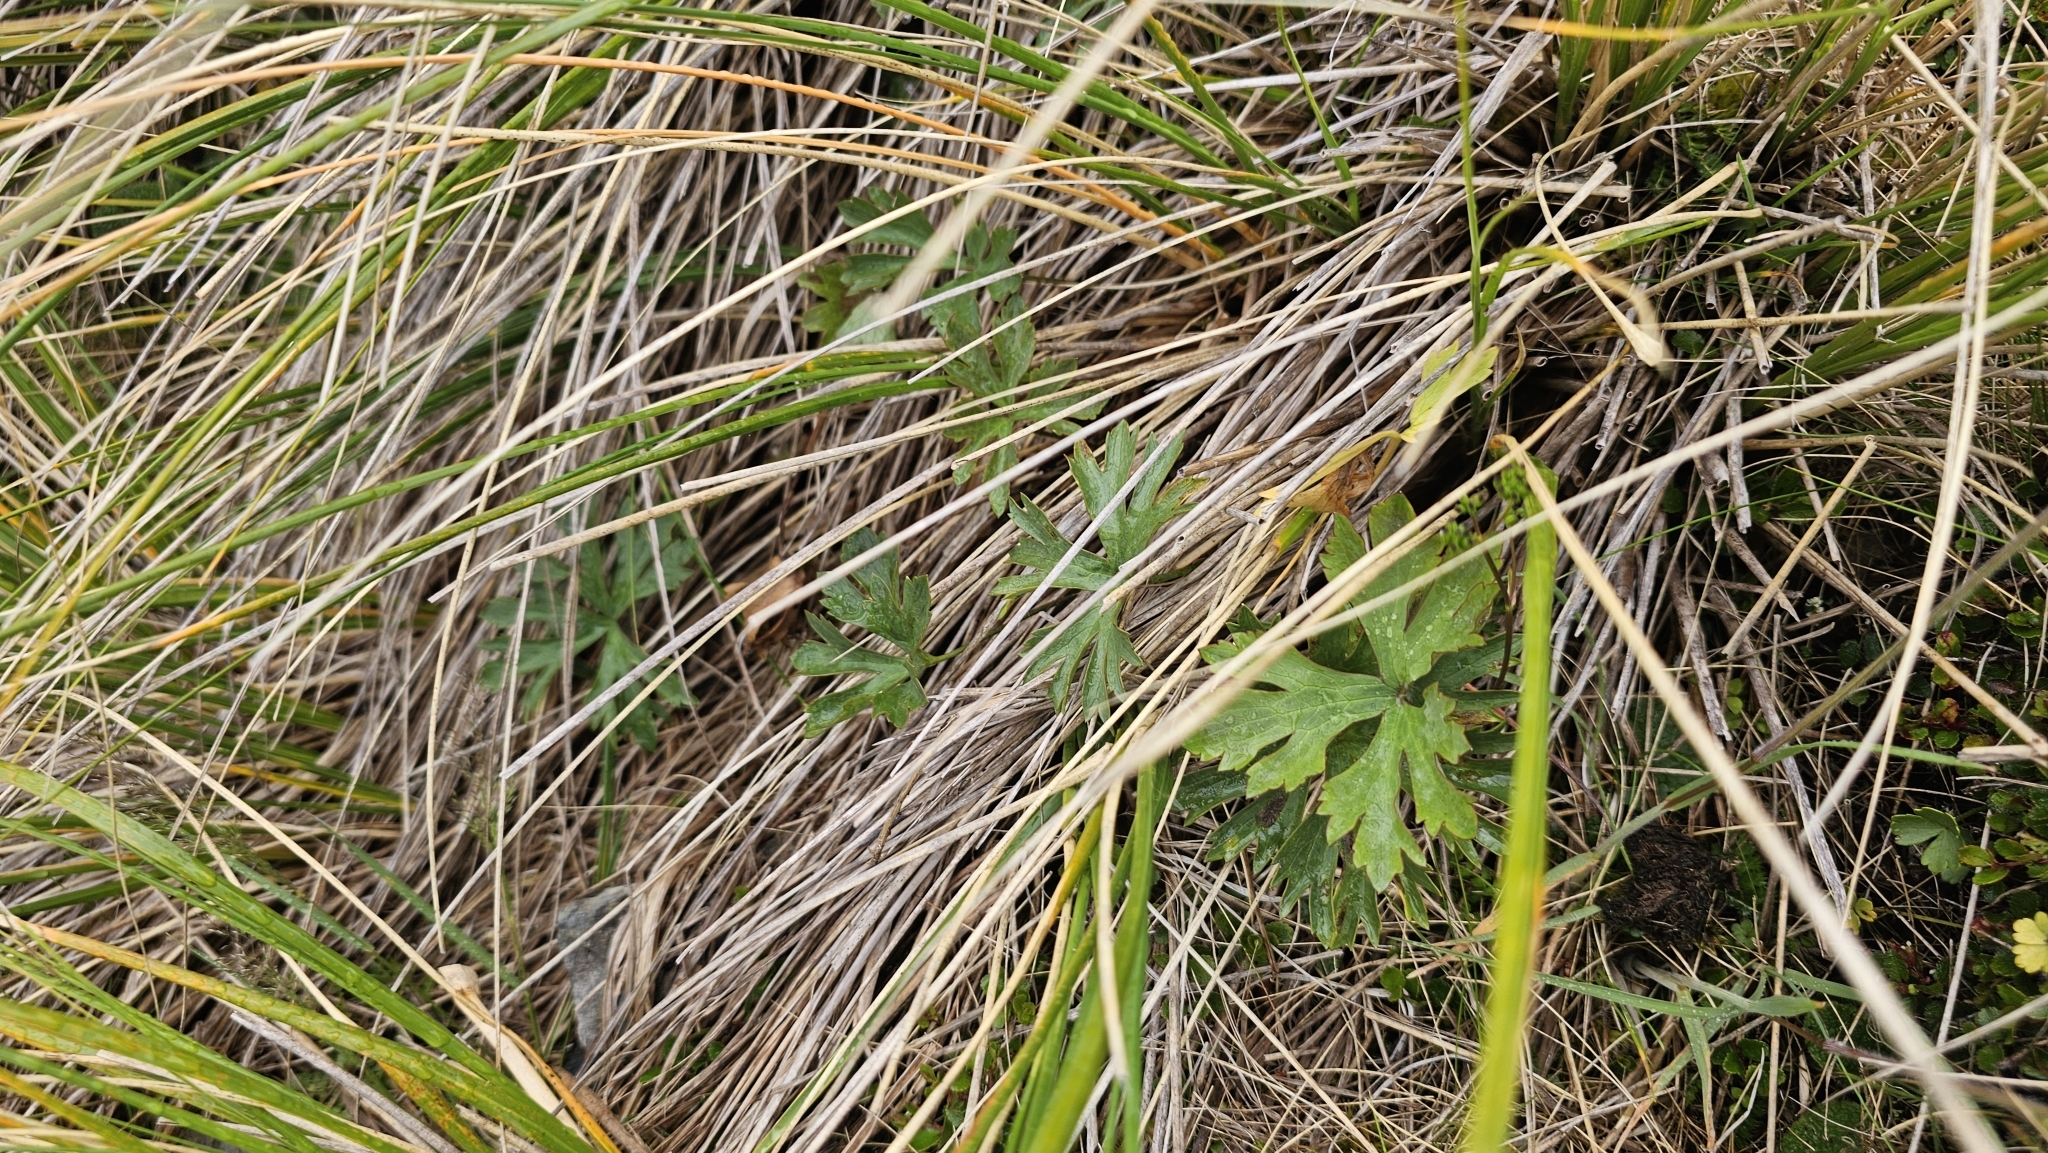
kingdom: Plantae
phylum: Tracheophyta
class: Magnoliopsida
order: Ranunculales
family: Ranunculaceae
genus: Ranunculus
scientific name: Ranunculus verticillatus
